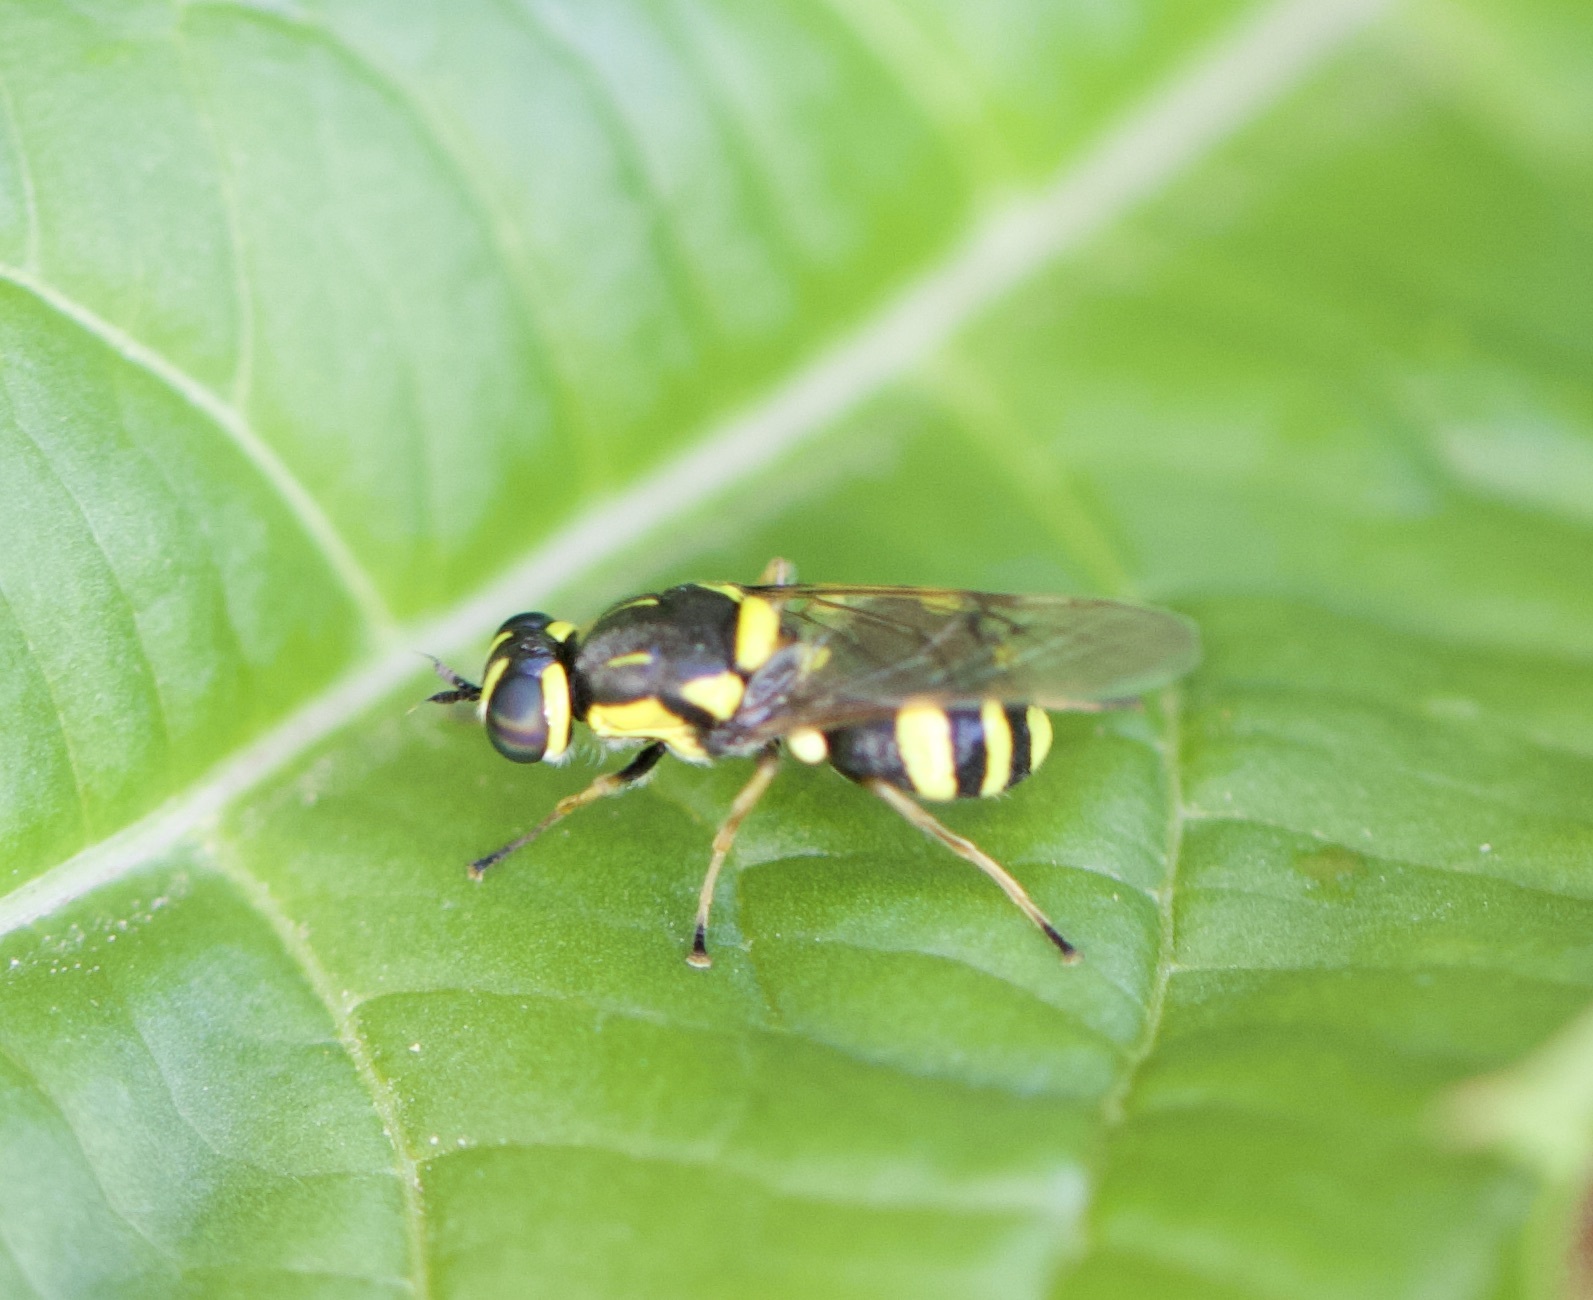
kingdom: Animalia
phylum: Arthropoda
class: Insecta
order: Diptera
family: Stratiomyidae
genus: Oxycera
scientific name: Oxycera rara
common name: Four-barred major
